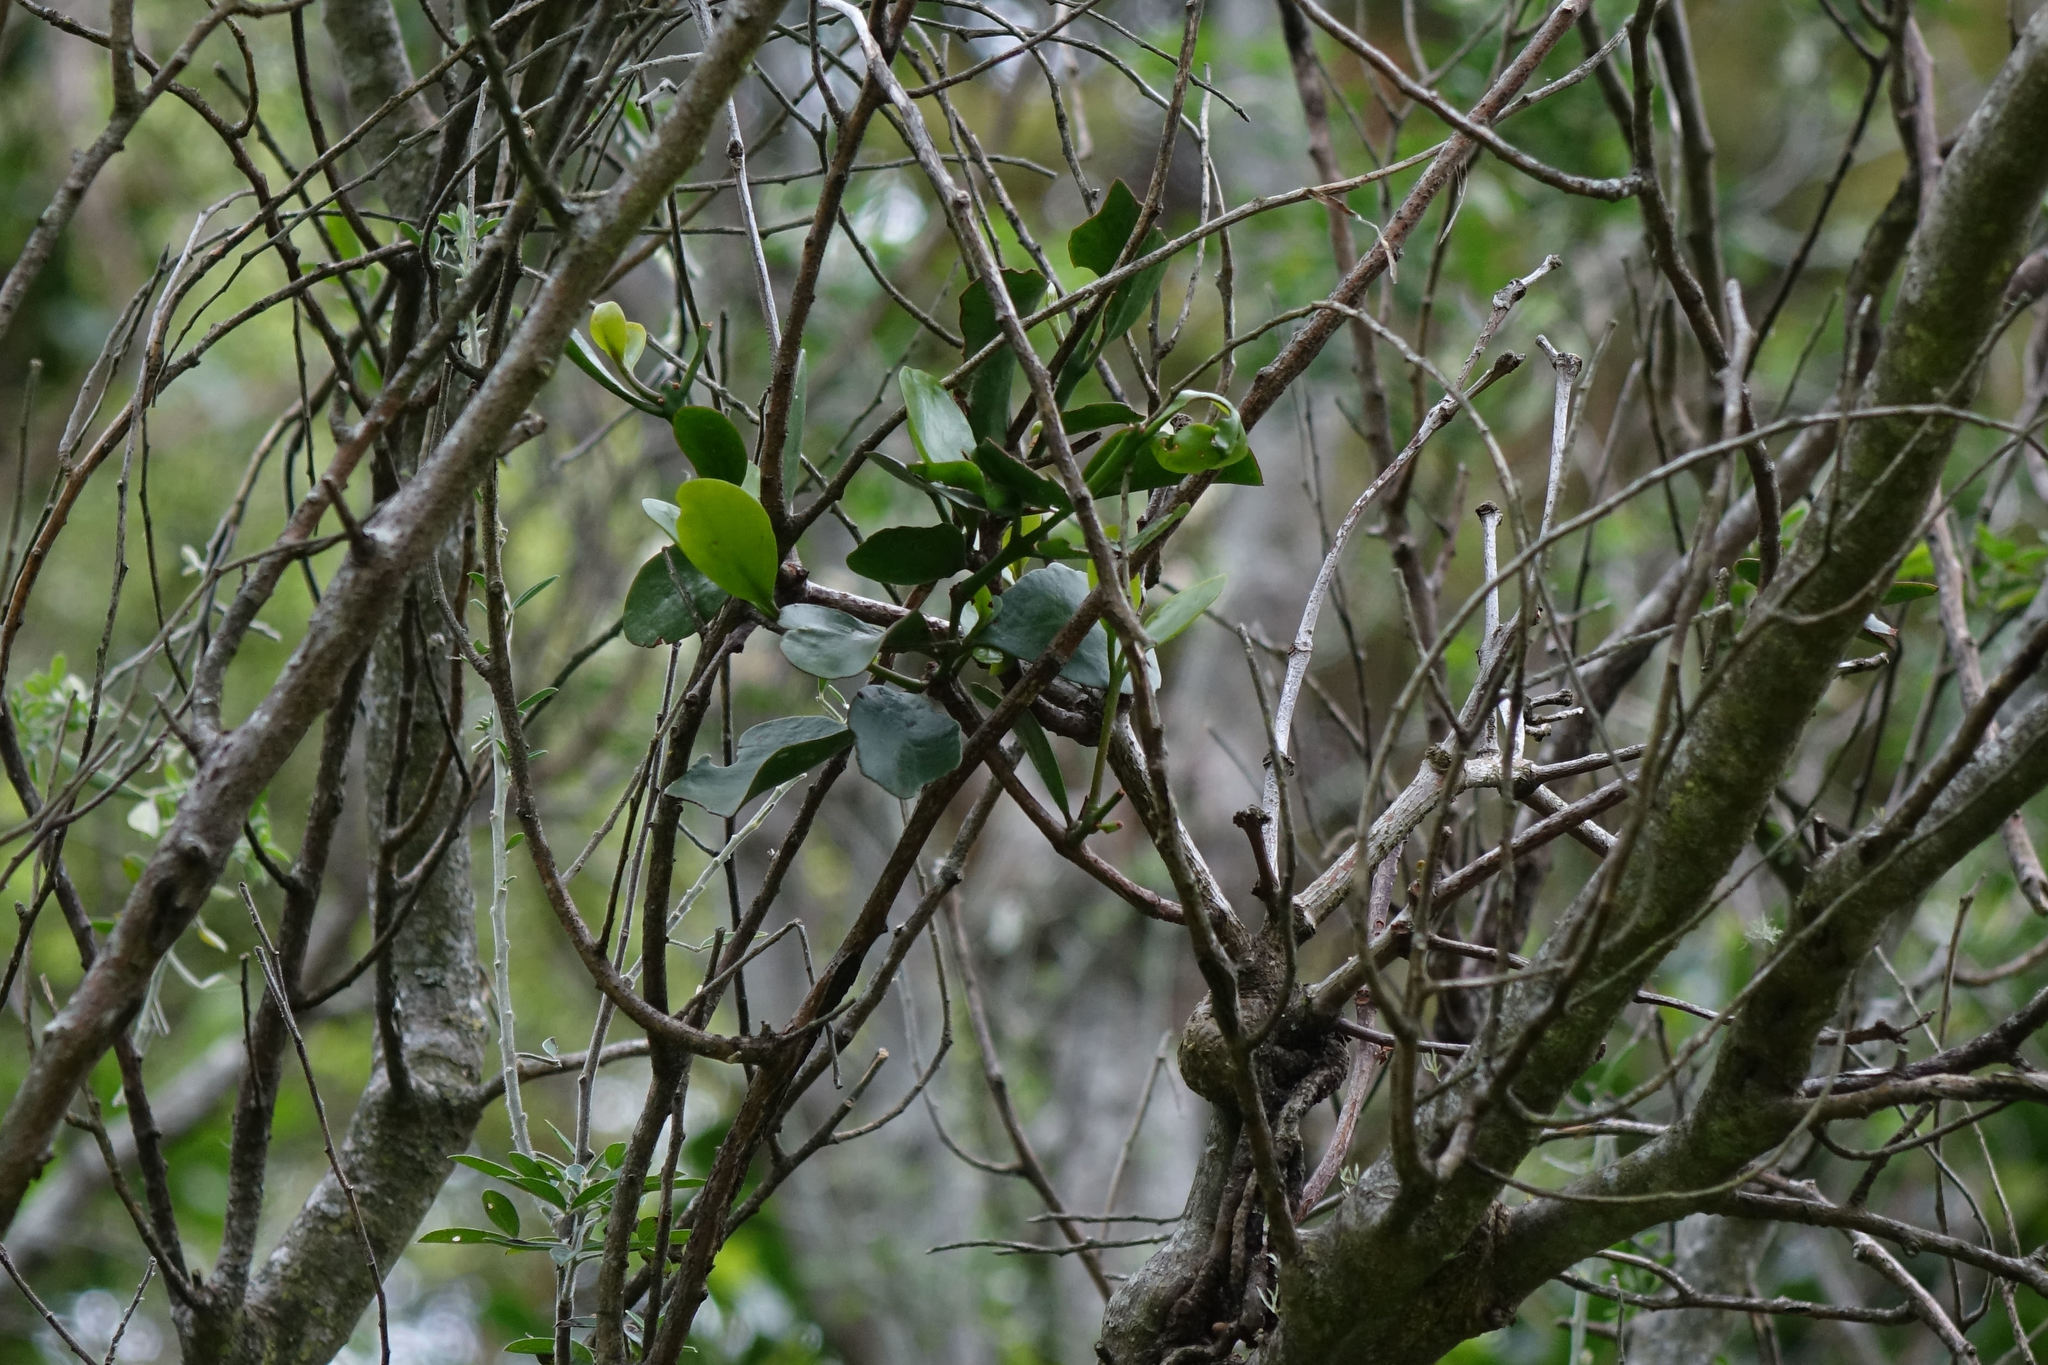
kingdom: Plantae
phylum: Tracheophyta
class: Magnoliopsida
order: Santalales
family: Loranthaceae
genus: Ileostylus
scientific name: Ileostylus micranthus
